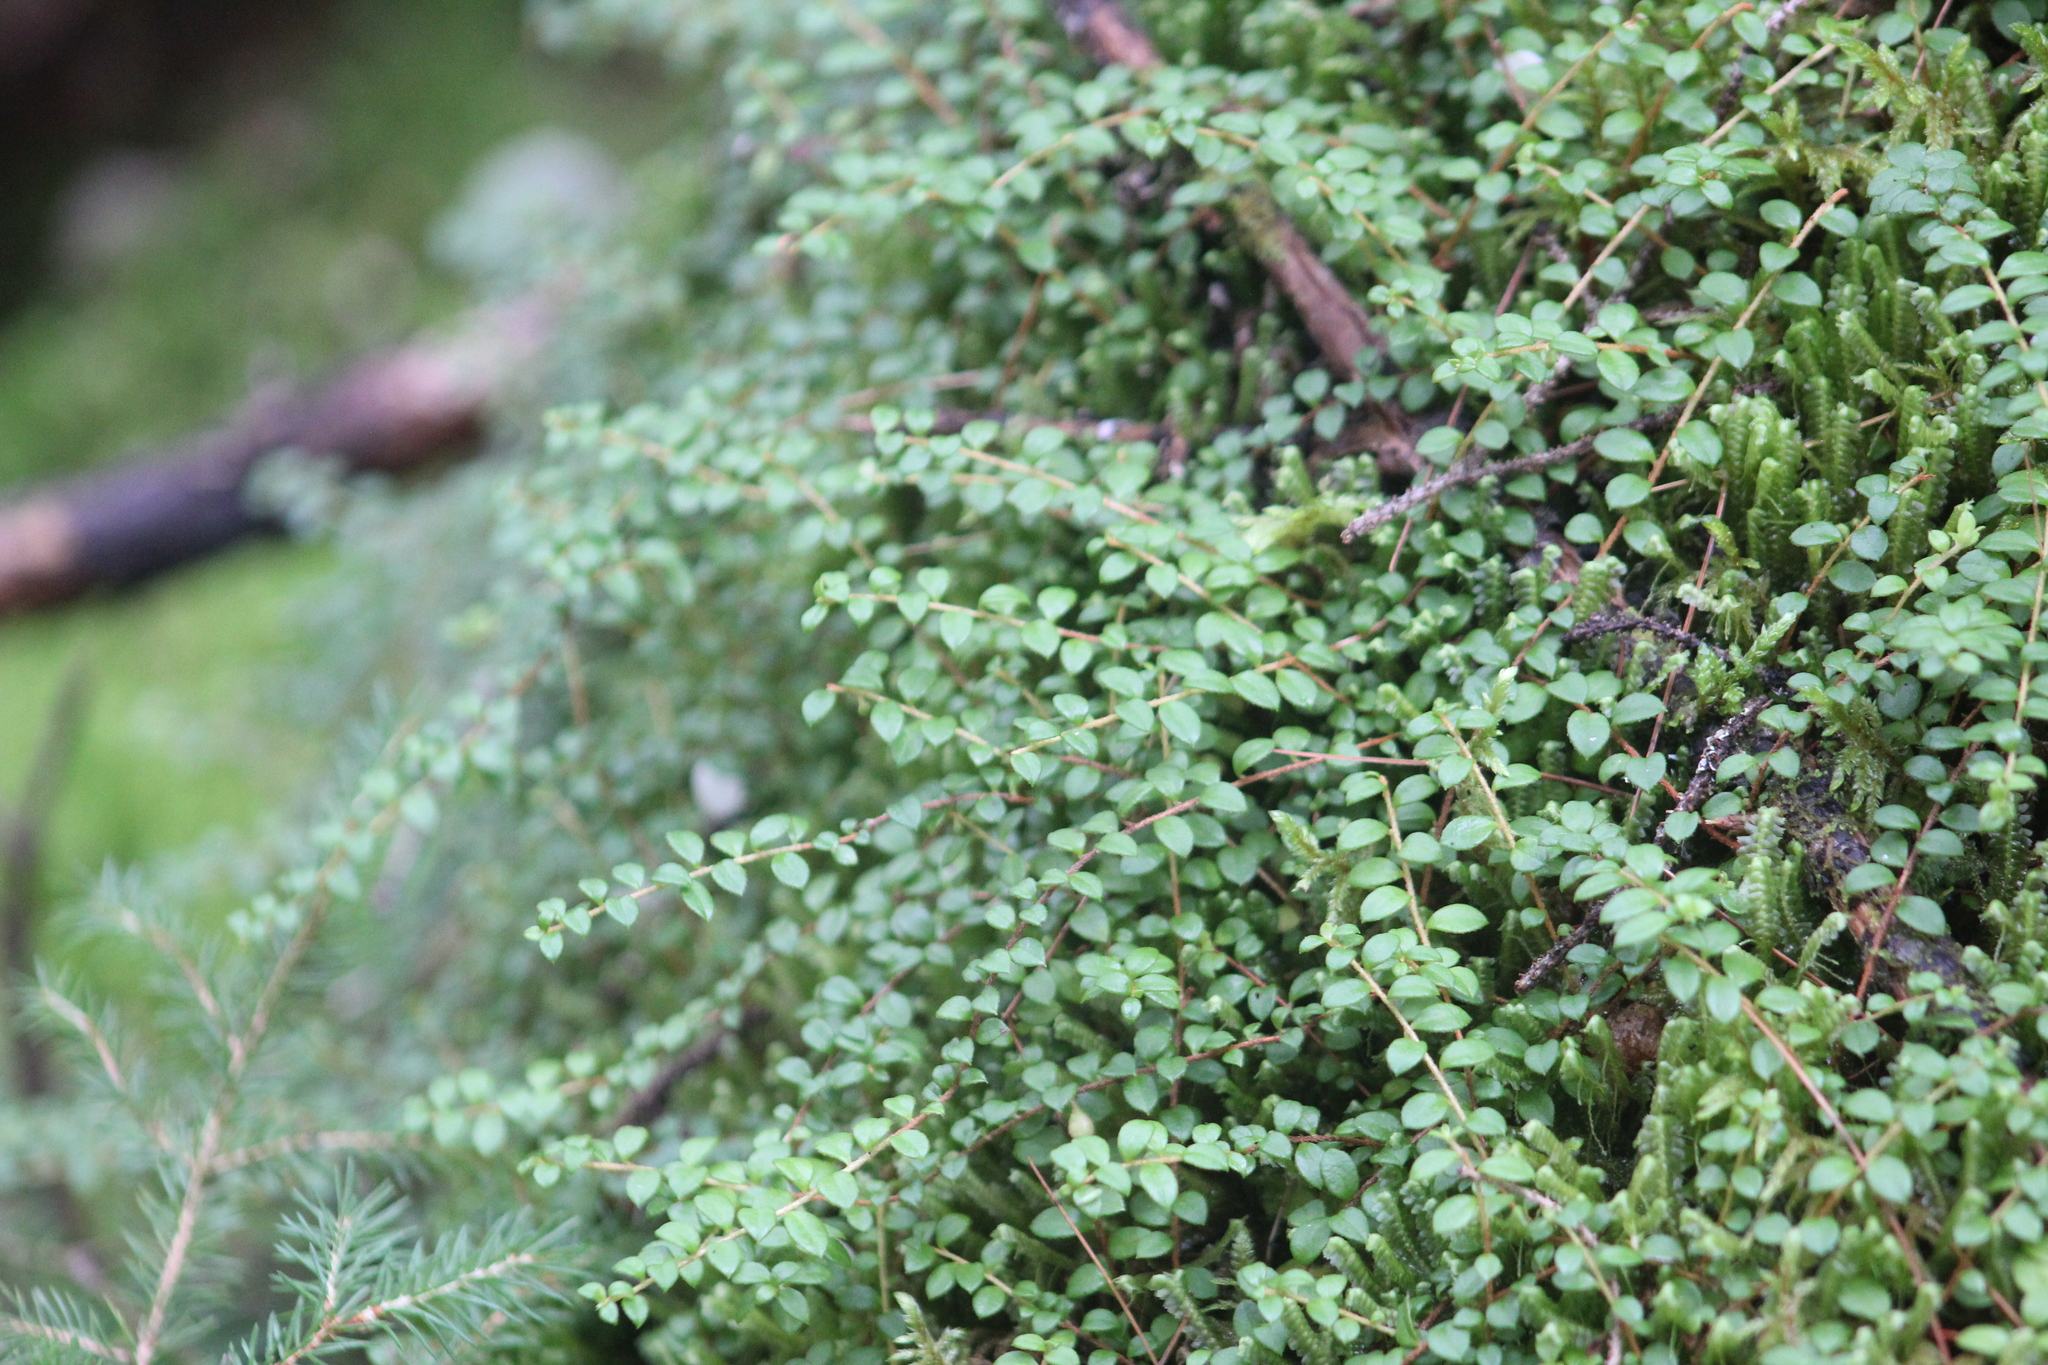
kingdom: Plantae
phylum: Tracheophyta
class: Magnoliopsida
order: Ericales
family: Ericaceae
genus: Gaultheria
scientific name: Gaultheria hispidula
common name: Cancer wintergreen
